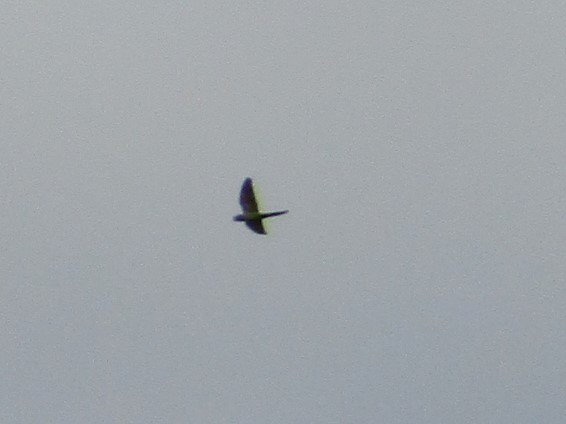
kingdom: Animalia
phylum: Chordata
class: Aves
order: Psittaciformes
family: Psittacidae
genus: Aratinga
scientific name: Aratinga leucophthalma
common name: White-eyed parakeet
